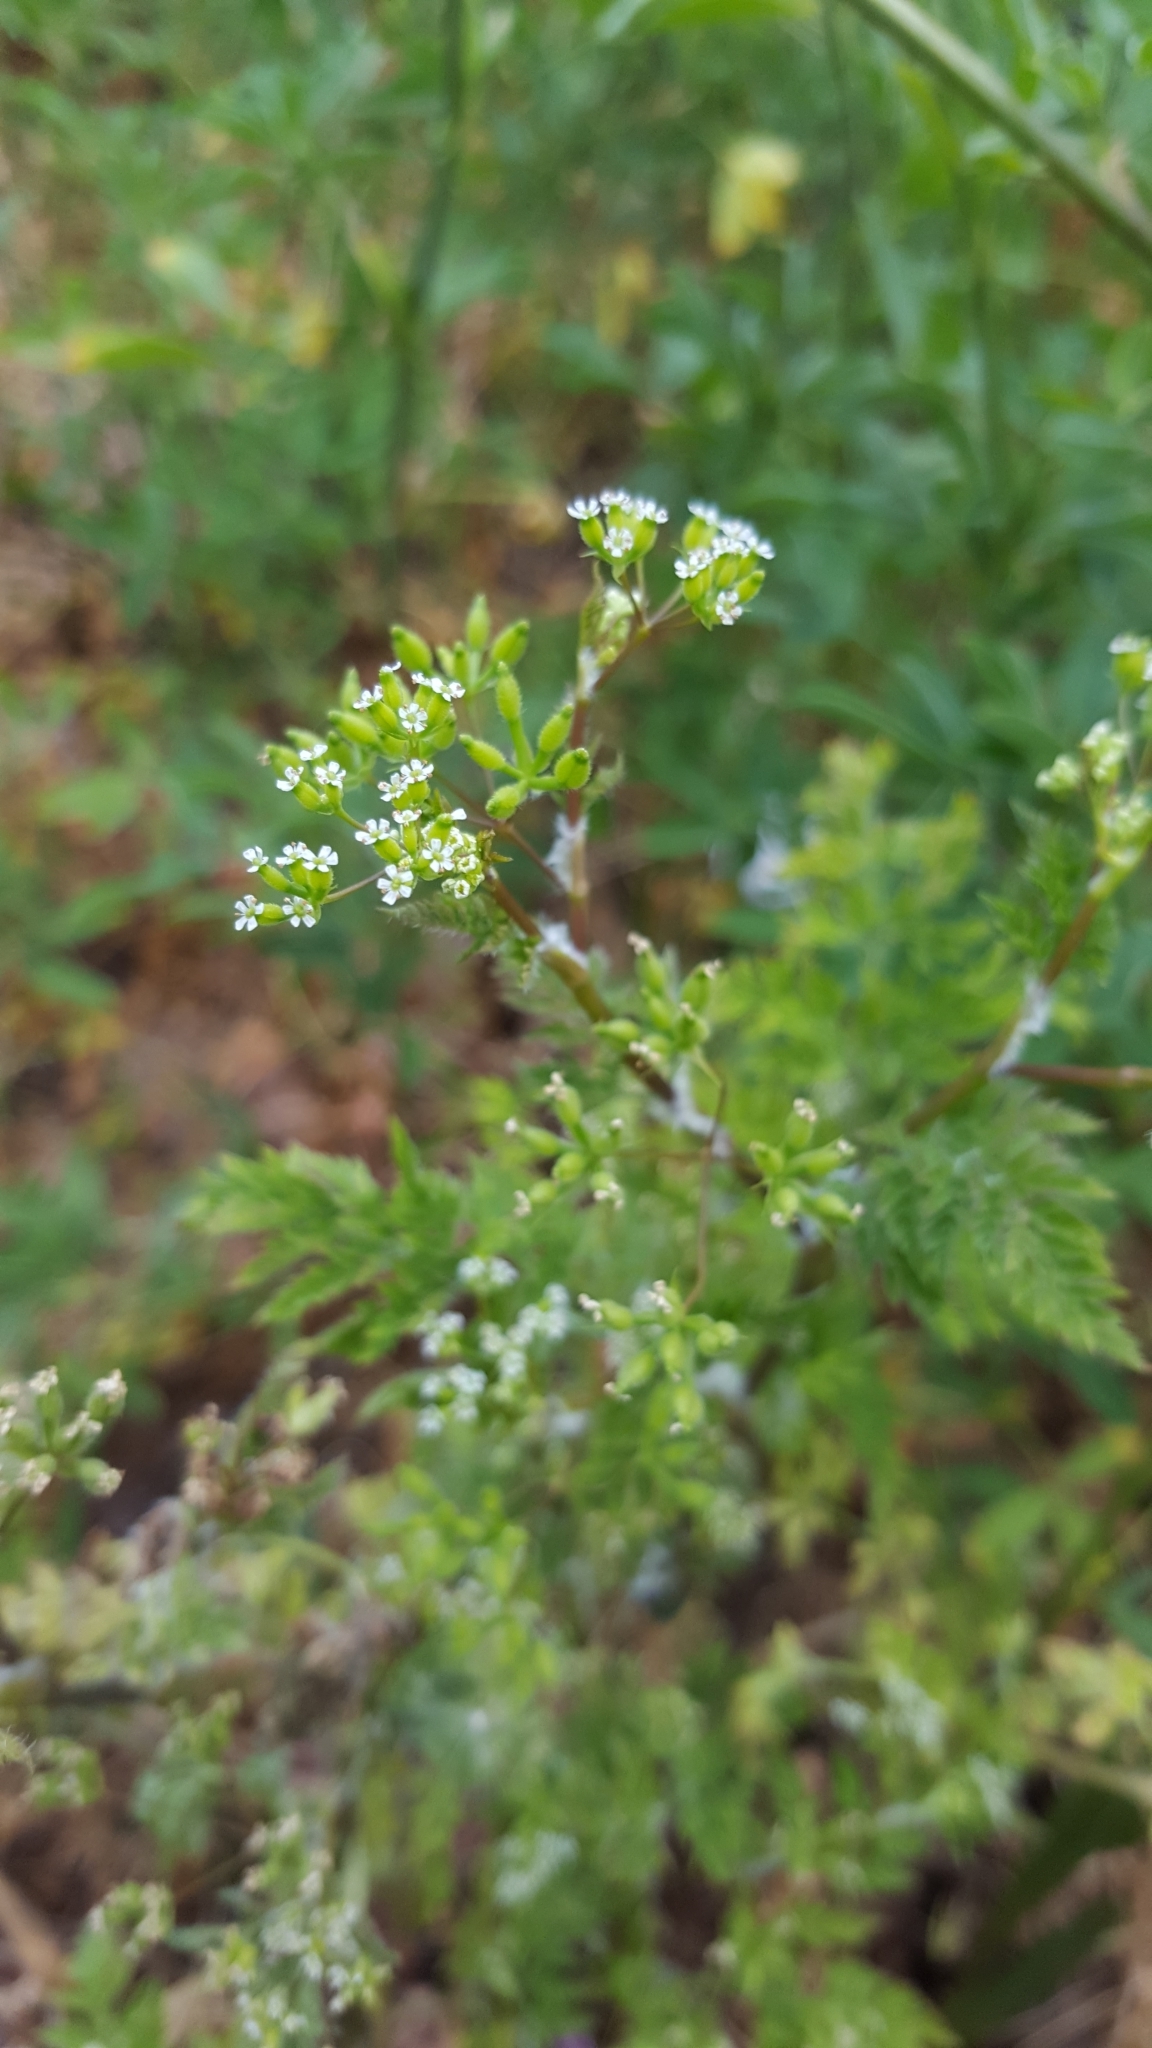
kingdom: Plantae
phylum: Tracheophyta
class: Magnoliopsida
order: Apiales
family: Apiaceae
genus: Anthriscus
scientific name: Anthriscus caucalis
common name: Bur chervil
